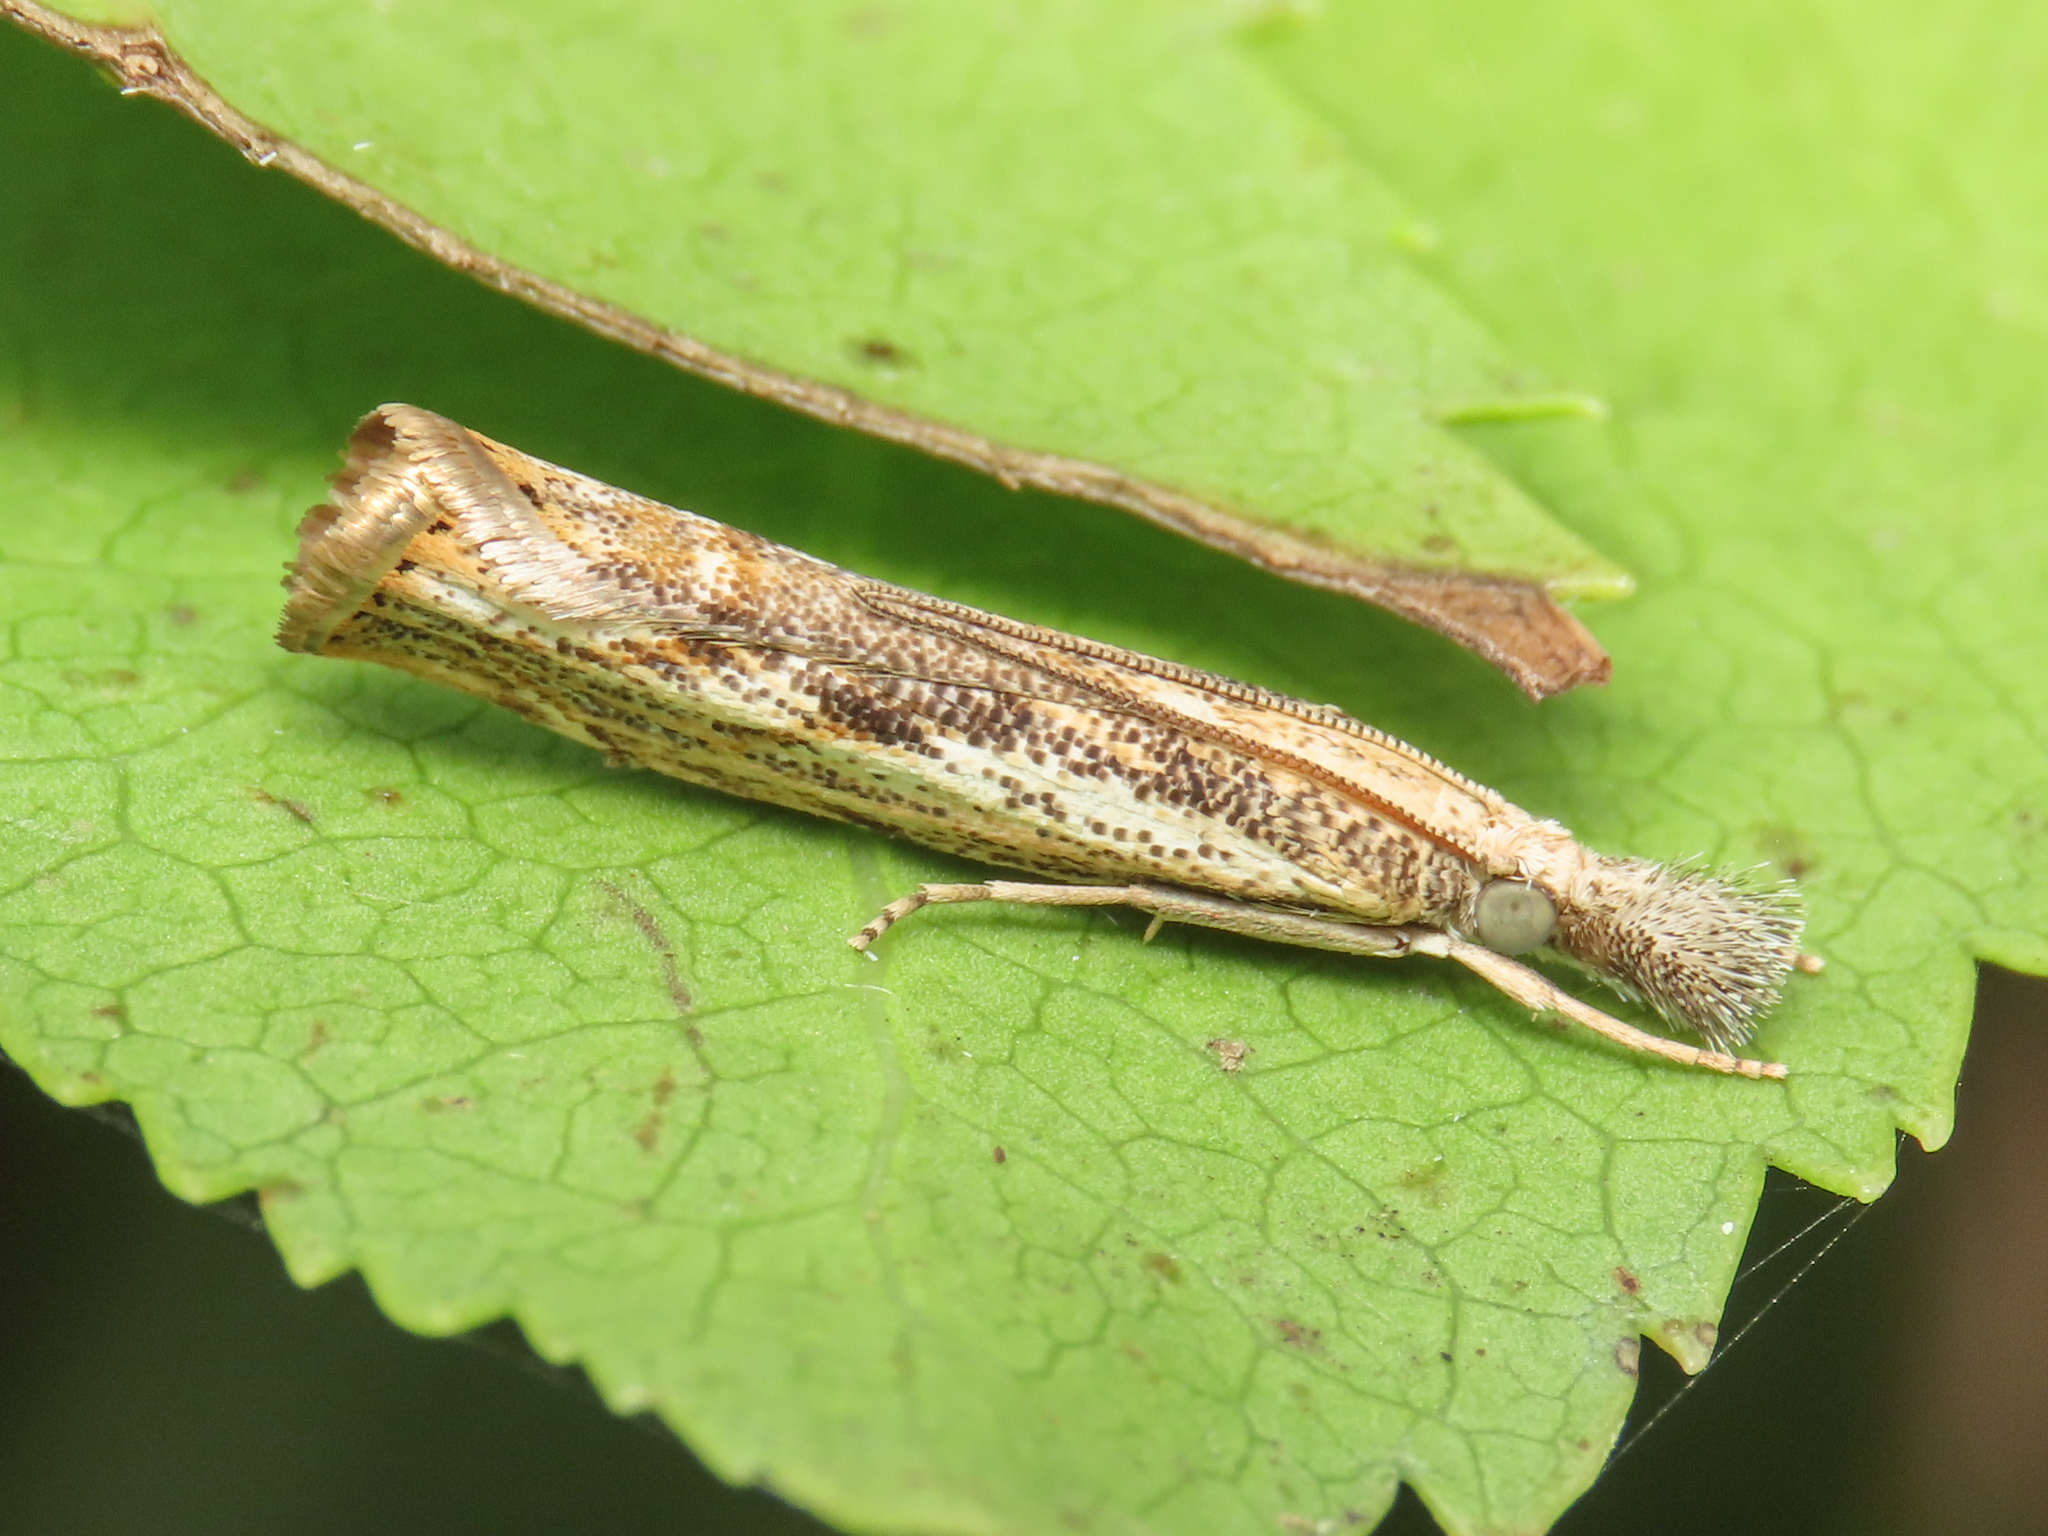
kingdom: Animalia
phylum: Arthropoda
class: Insecta
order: Lepidoptera
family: Crambidae
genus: Agriphila
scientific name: Agriphila tolli
